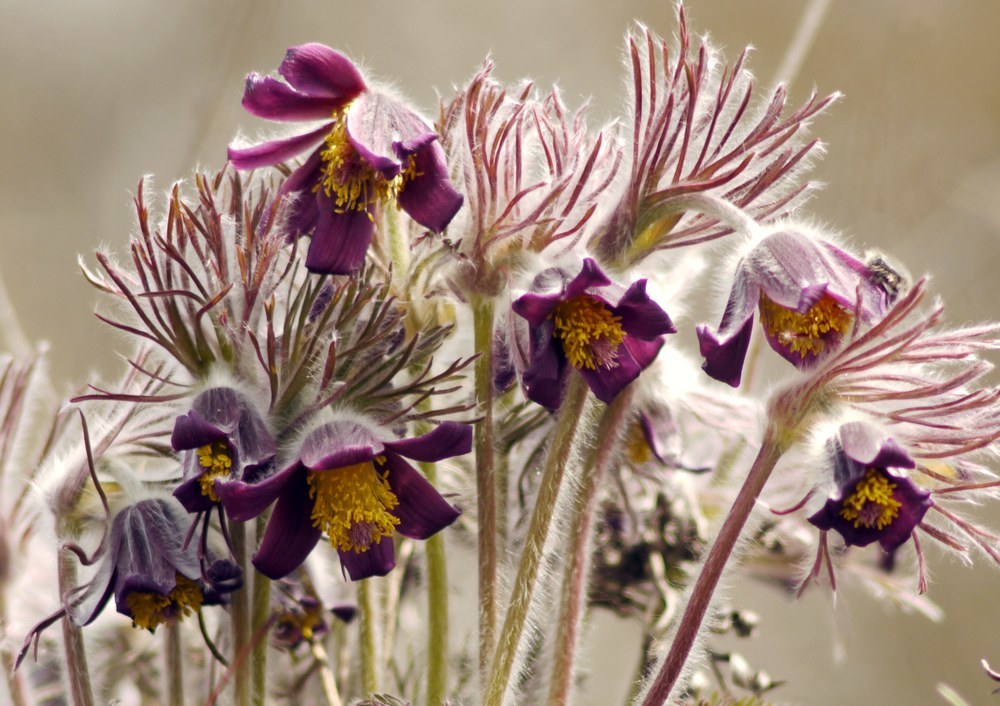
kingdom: Plantae
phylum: Tracheophyta
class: Magnoliopsida
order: Ranunculales
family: Ranunculaceae
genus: Pulsatilla
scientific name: Pulsatilla pratensis
